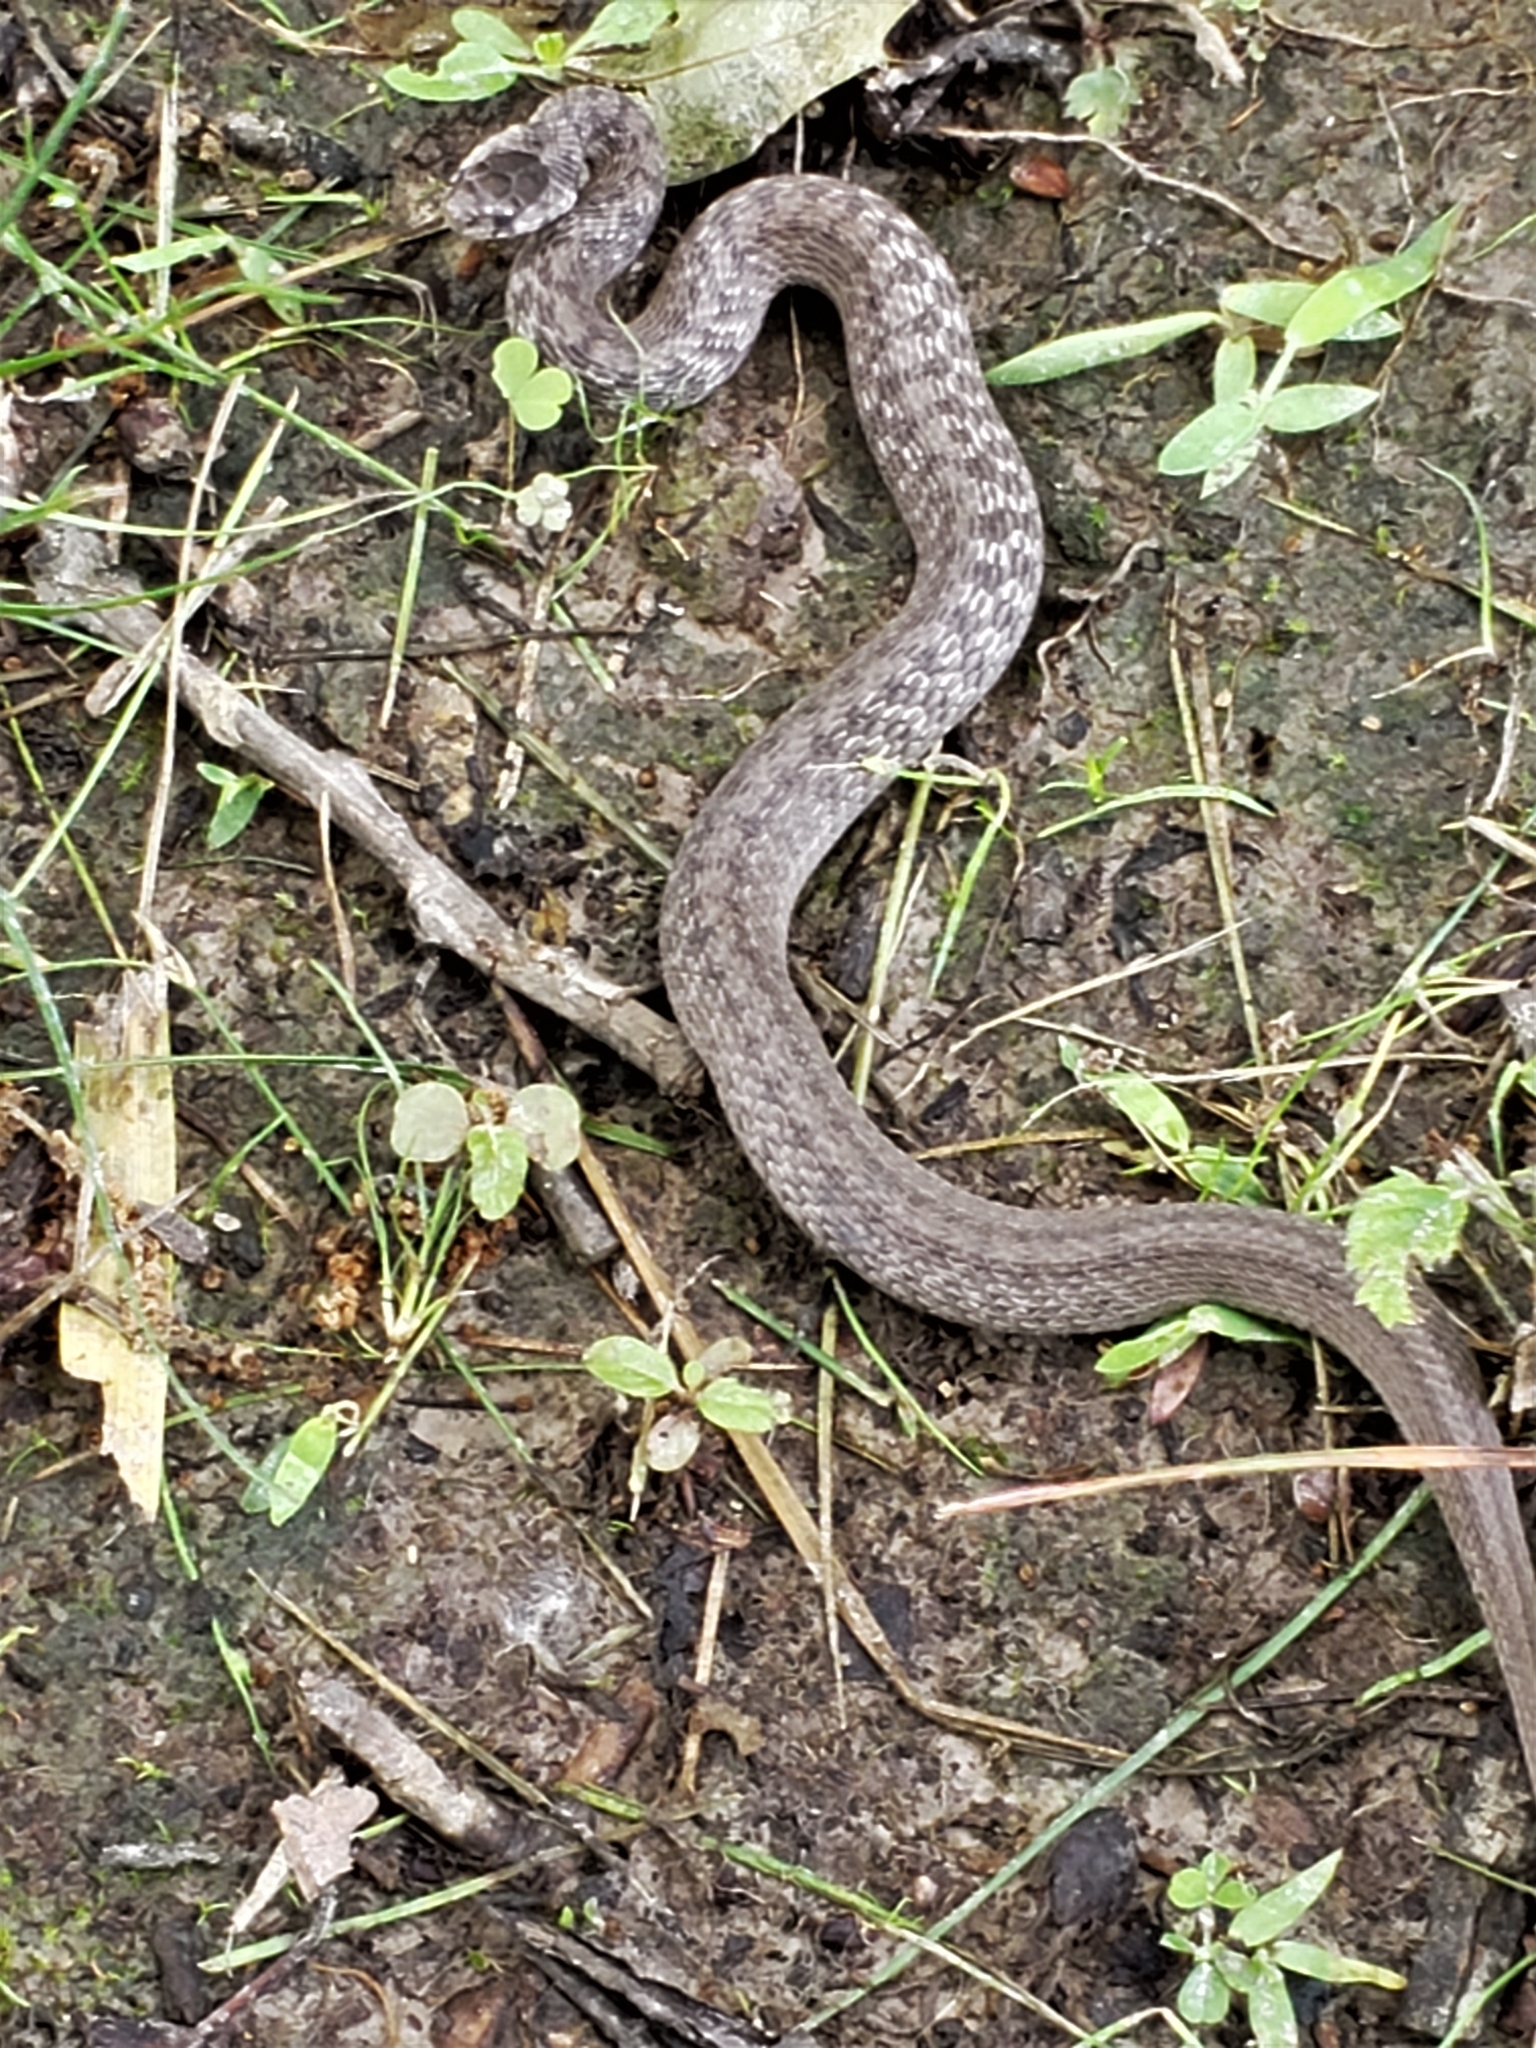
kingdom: Animalia
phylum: Chordata
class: Squamata
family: Colubridae
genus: Storeria
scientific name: Storeria dekayi
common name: (dekay’s) brown snake
